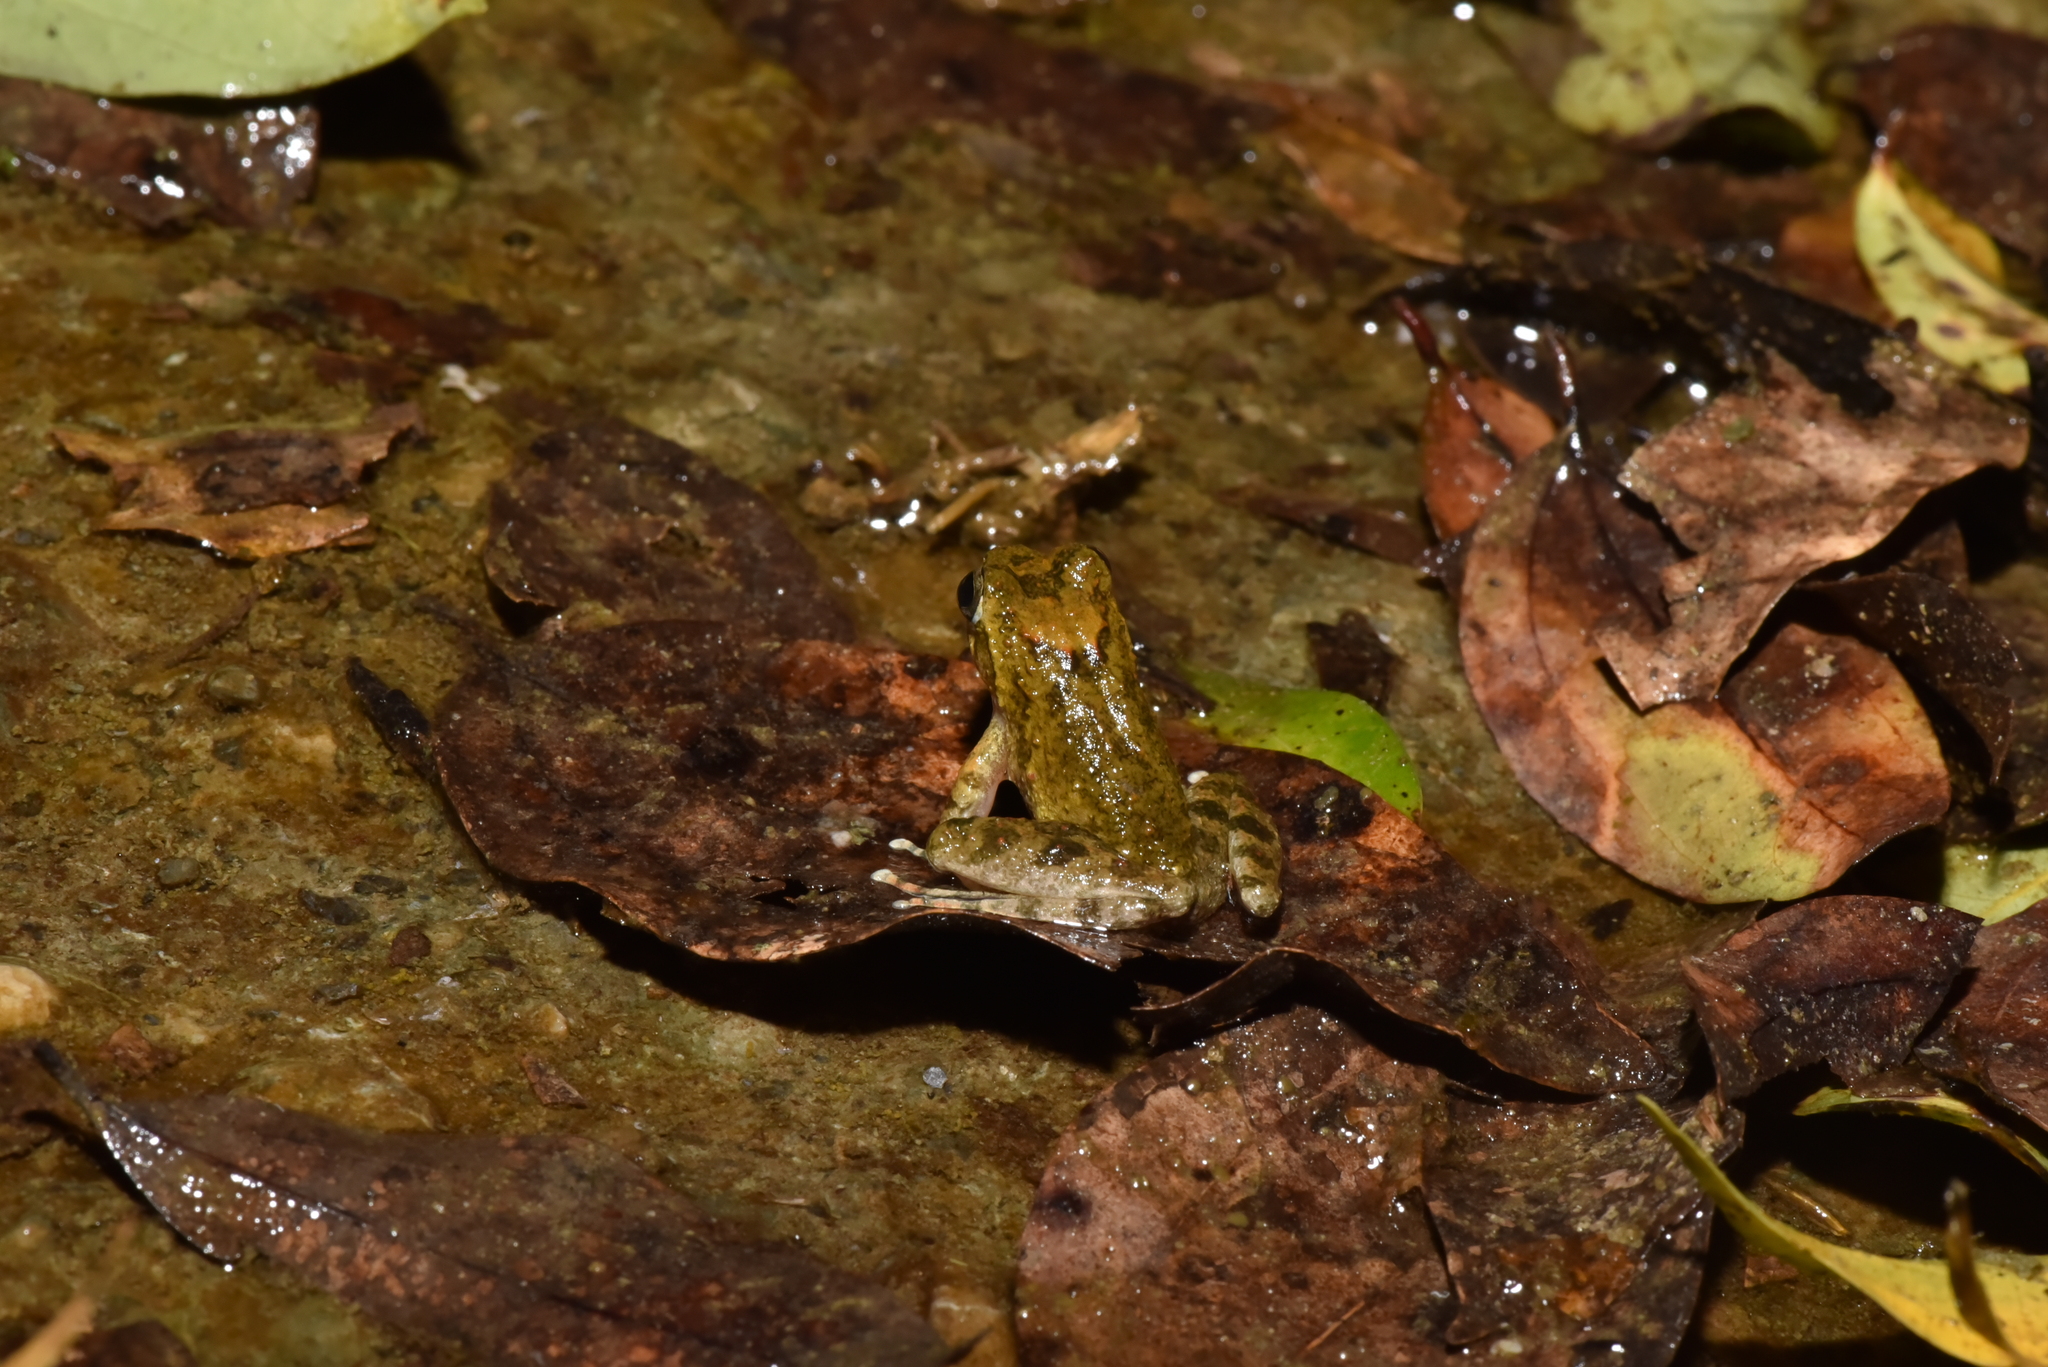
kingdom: Animalia
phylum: Chordata
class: Amphibia
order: Anura
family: Rhacophoridae
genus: Buergeria
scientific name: Buergeria otai
